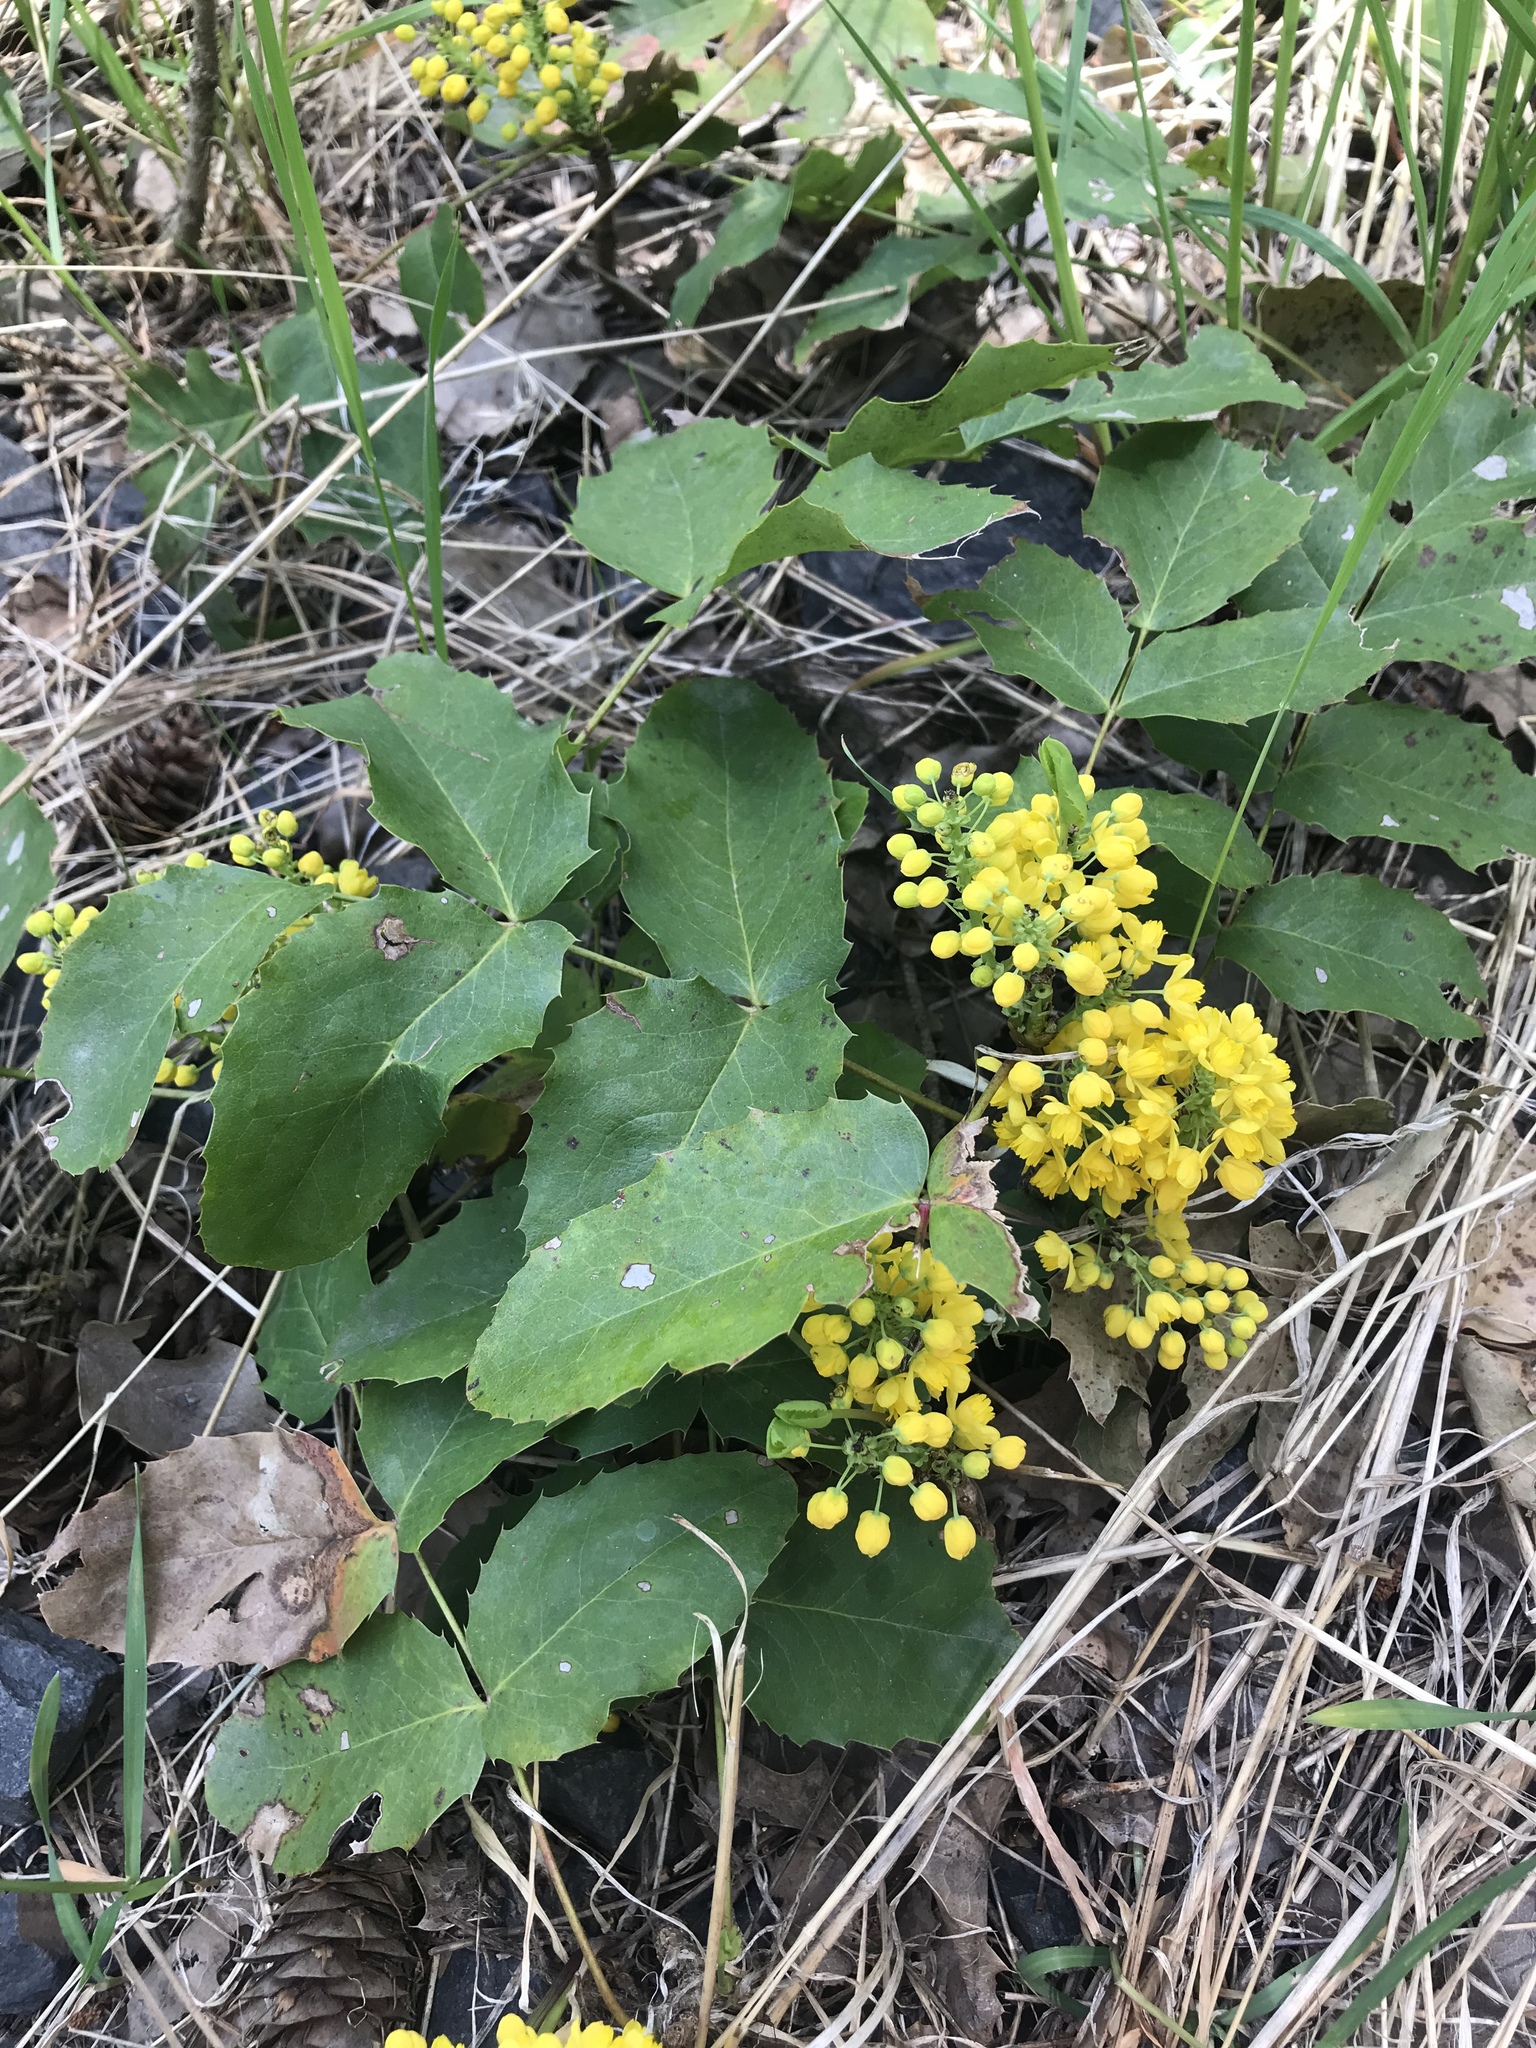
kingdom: Plantae
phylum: Tracheophyta
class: Magnoliopsida
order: Ranunculales
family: Berberidaceae
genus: Mahonia
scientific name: Mahonia repens
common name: Creeping oregon-grape
